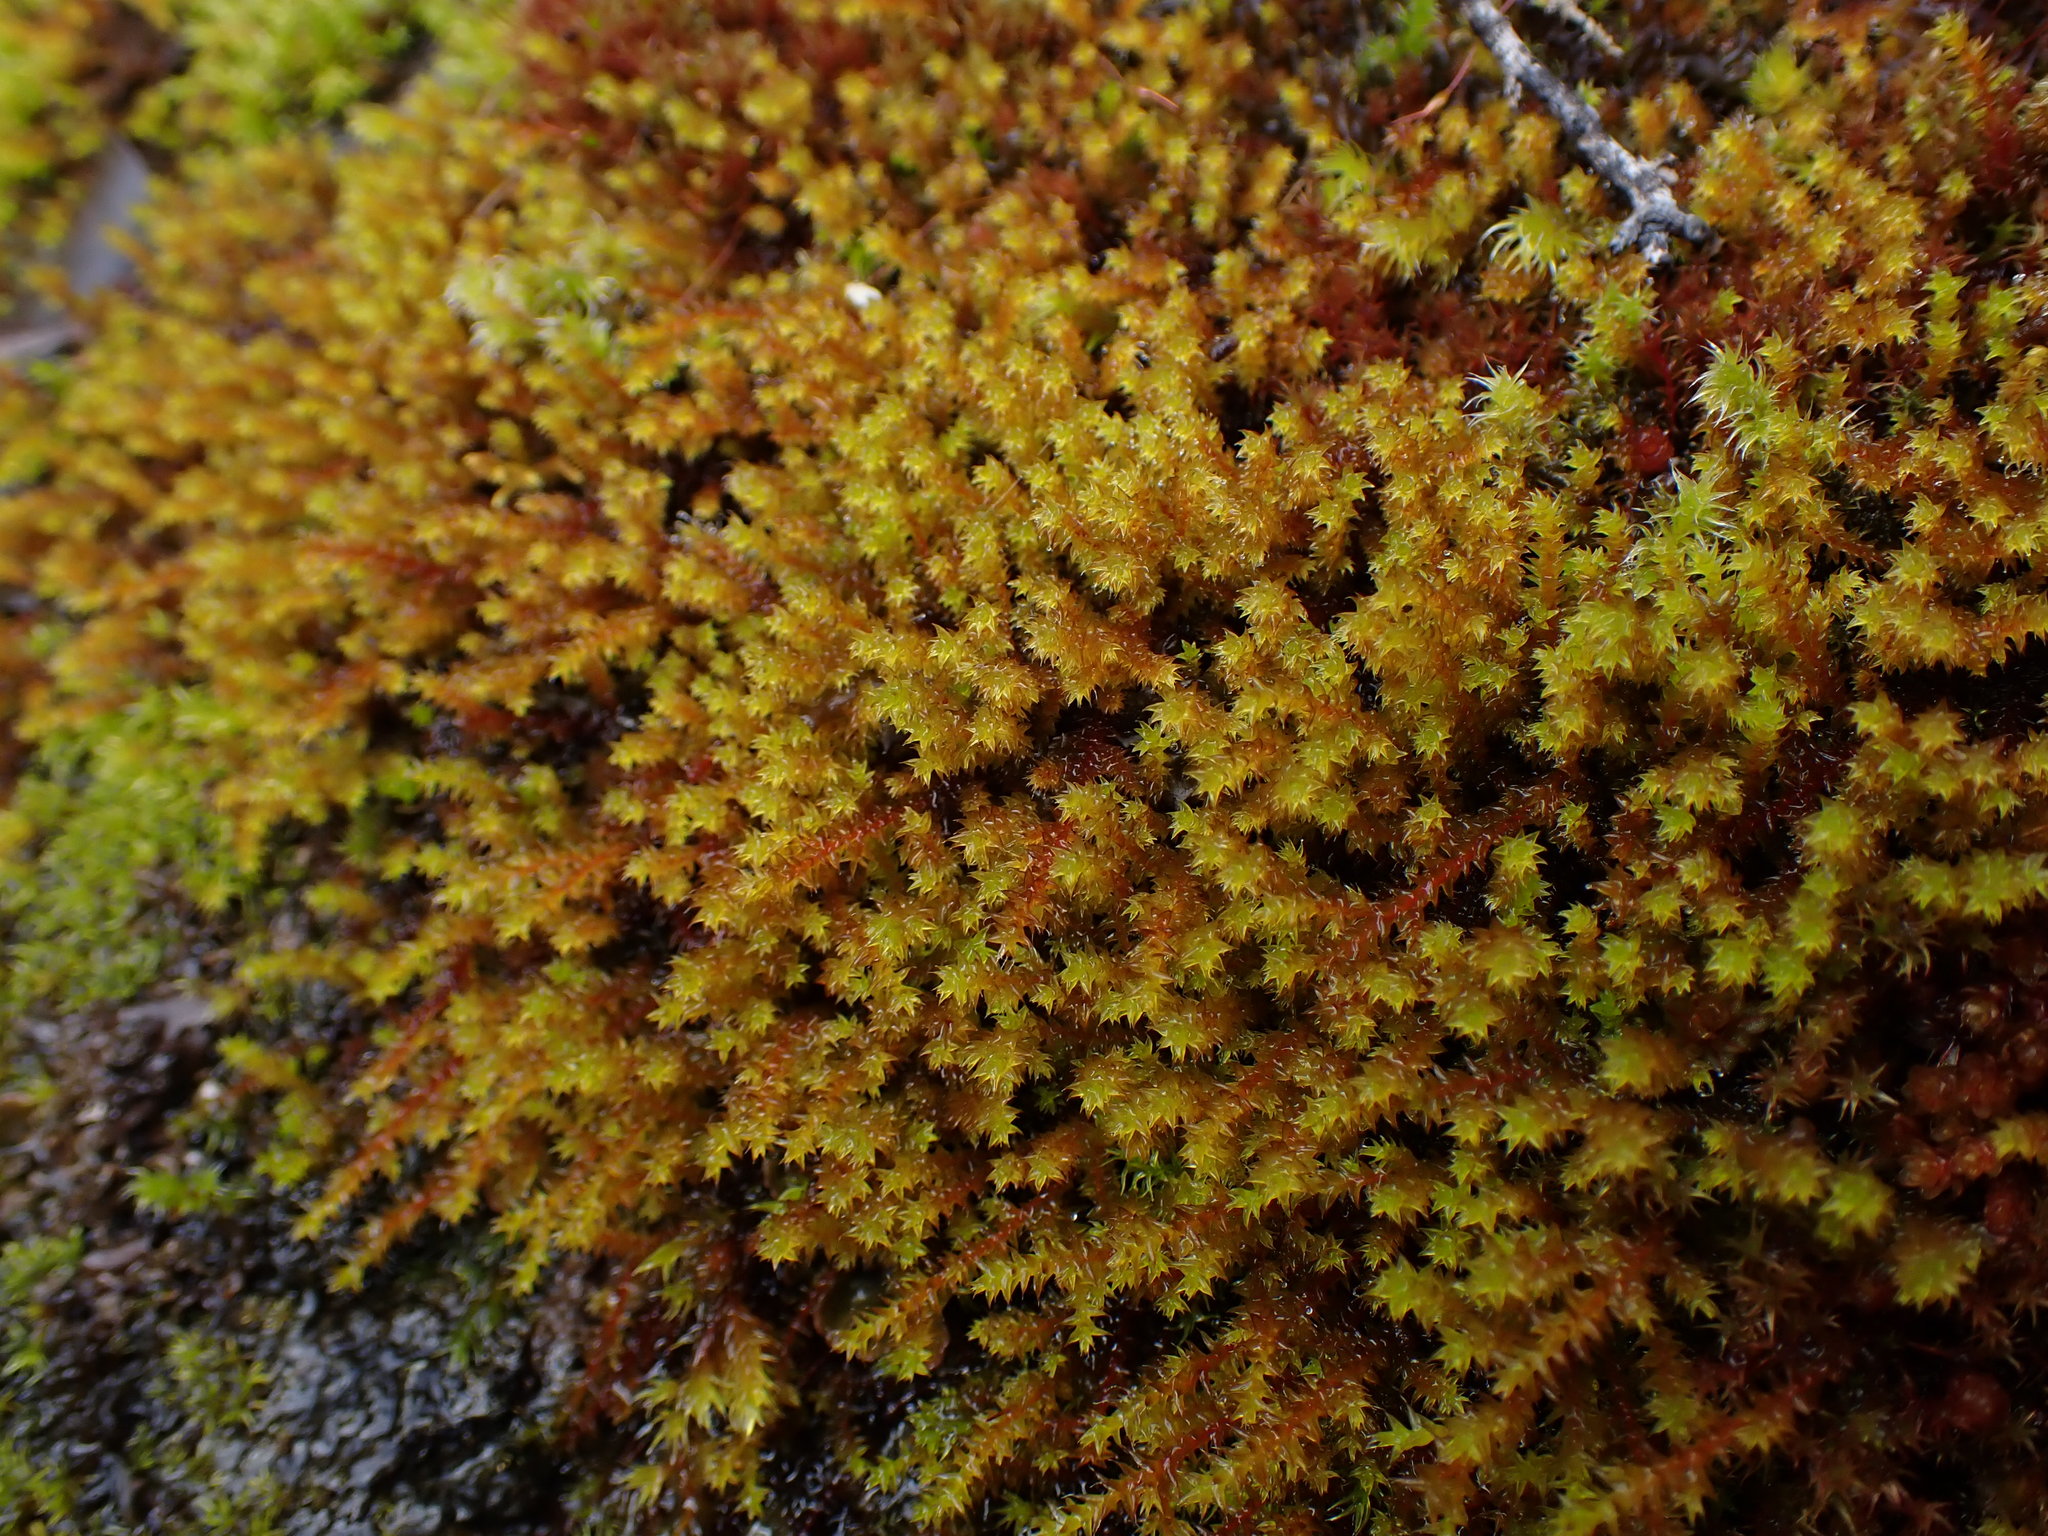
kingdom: Plantae
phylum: Bryophyta
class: Bryopsida
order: Hedwigiales
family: Hedwigiaceae
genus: Pseudobraunia
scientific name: Pseudobraunia californica
